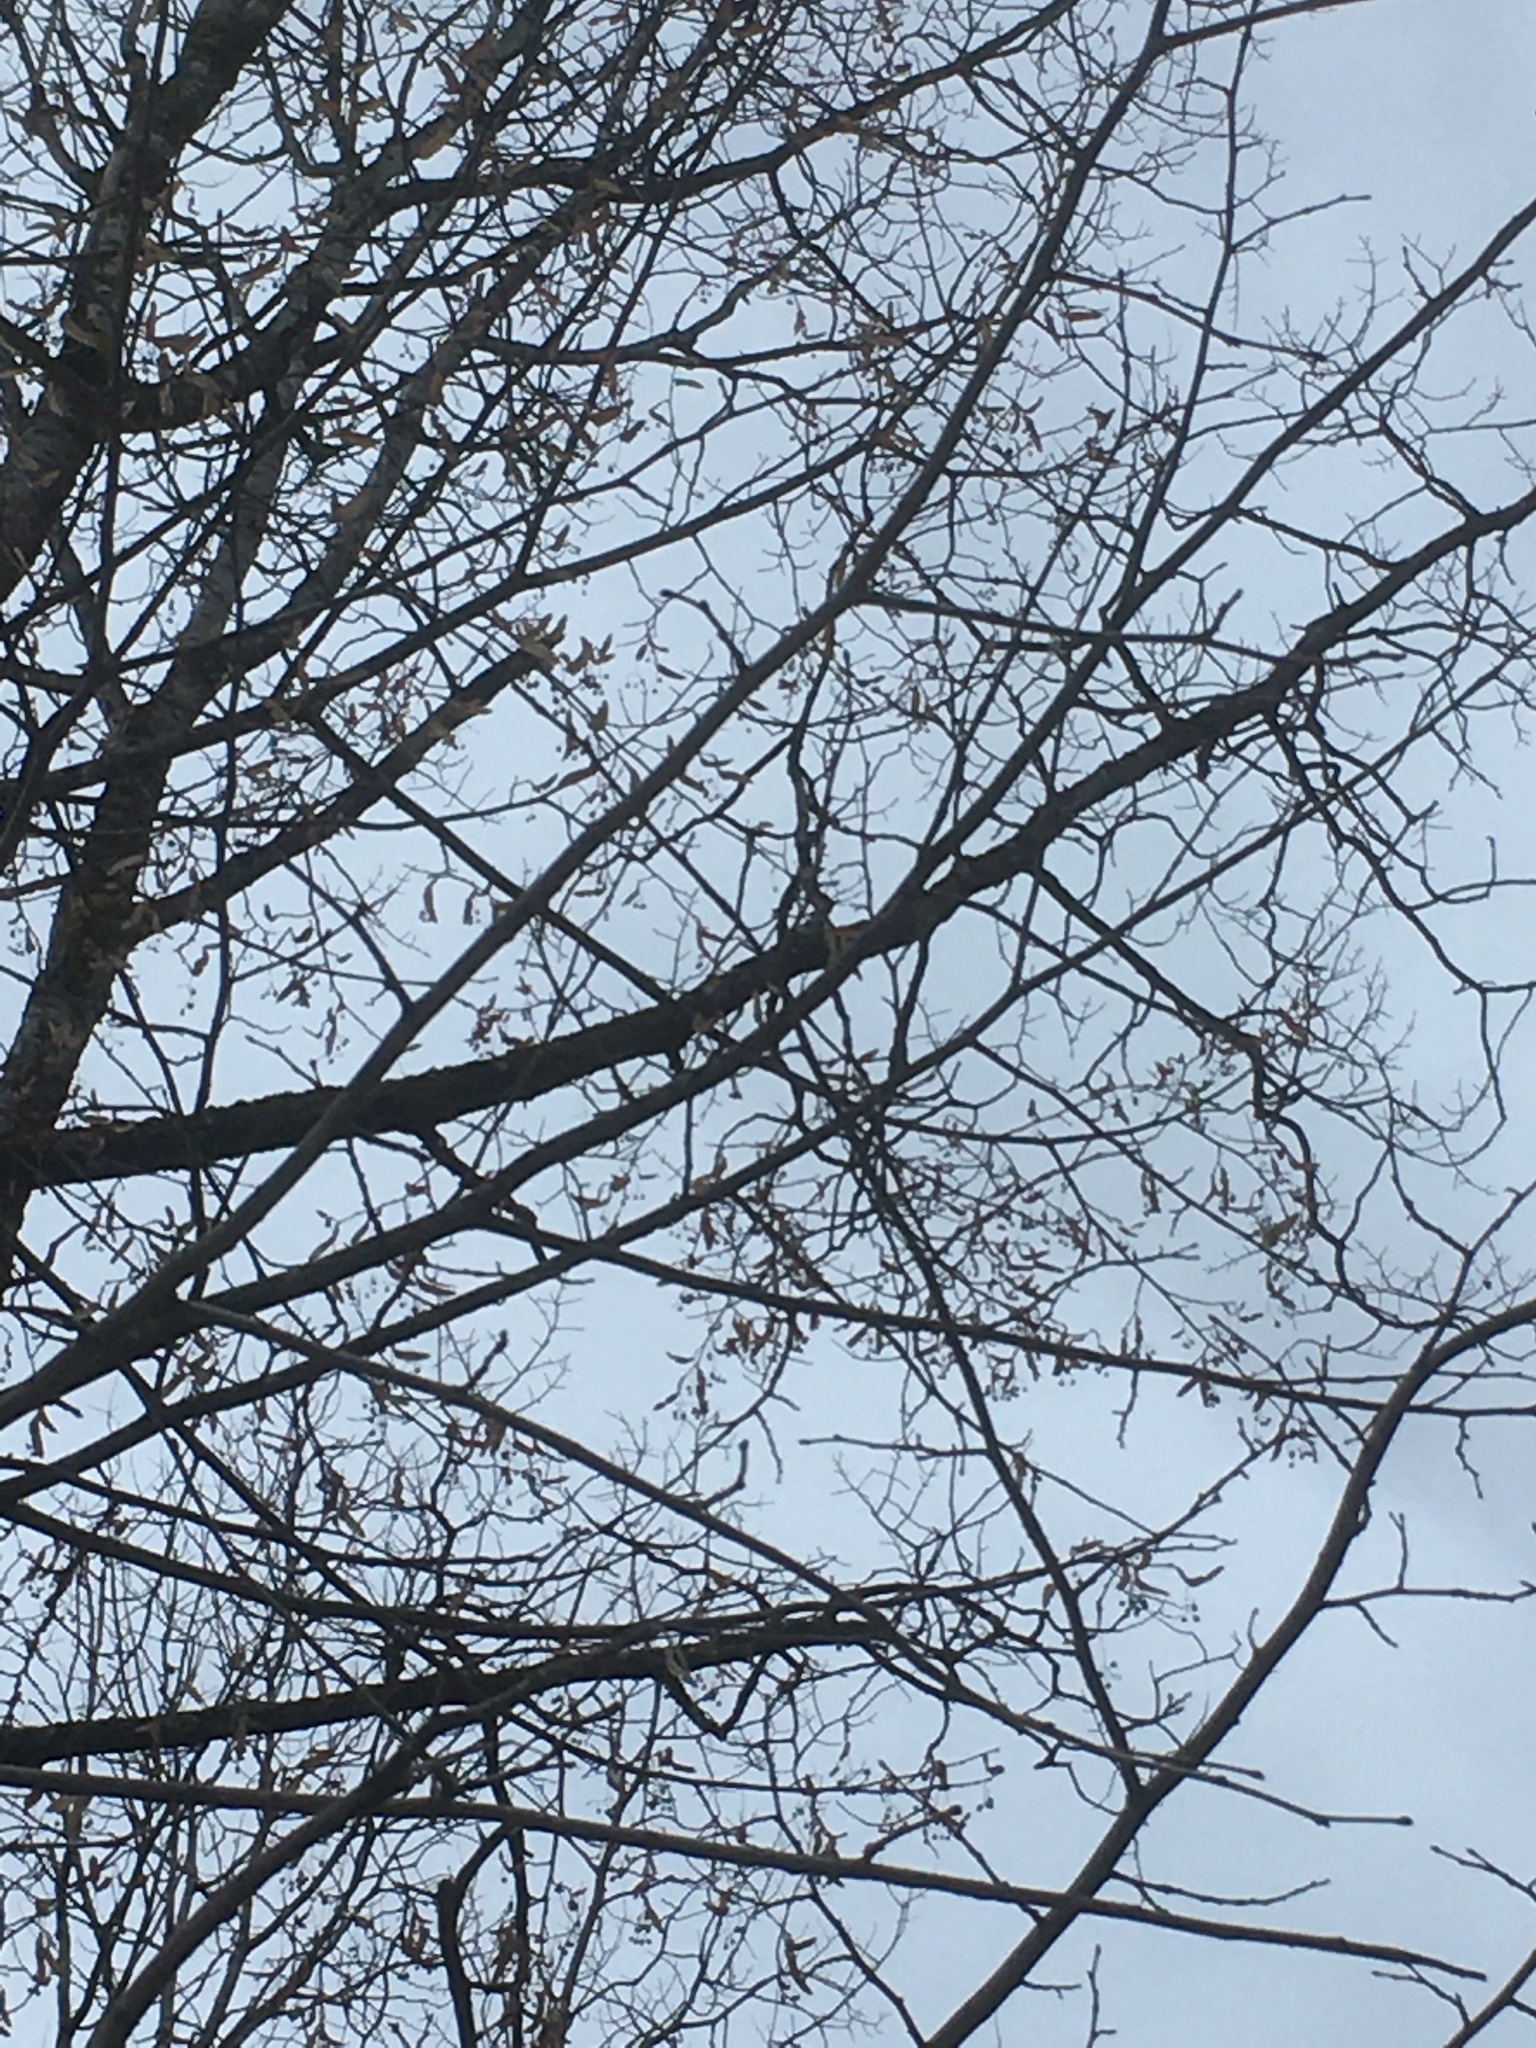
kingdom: Plantae
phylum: Tracheophyta
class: Magnoliopsida
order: Malvales
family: Malvaceae
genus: Tilia
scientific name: Tilia americana
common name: Basswood
